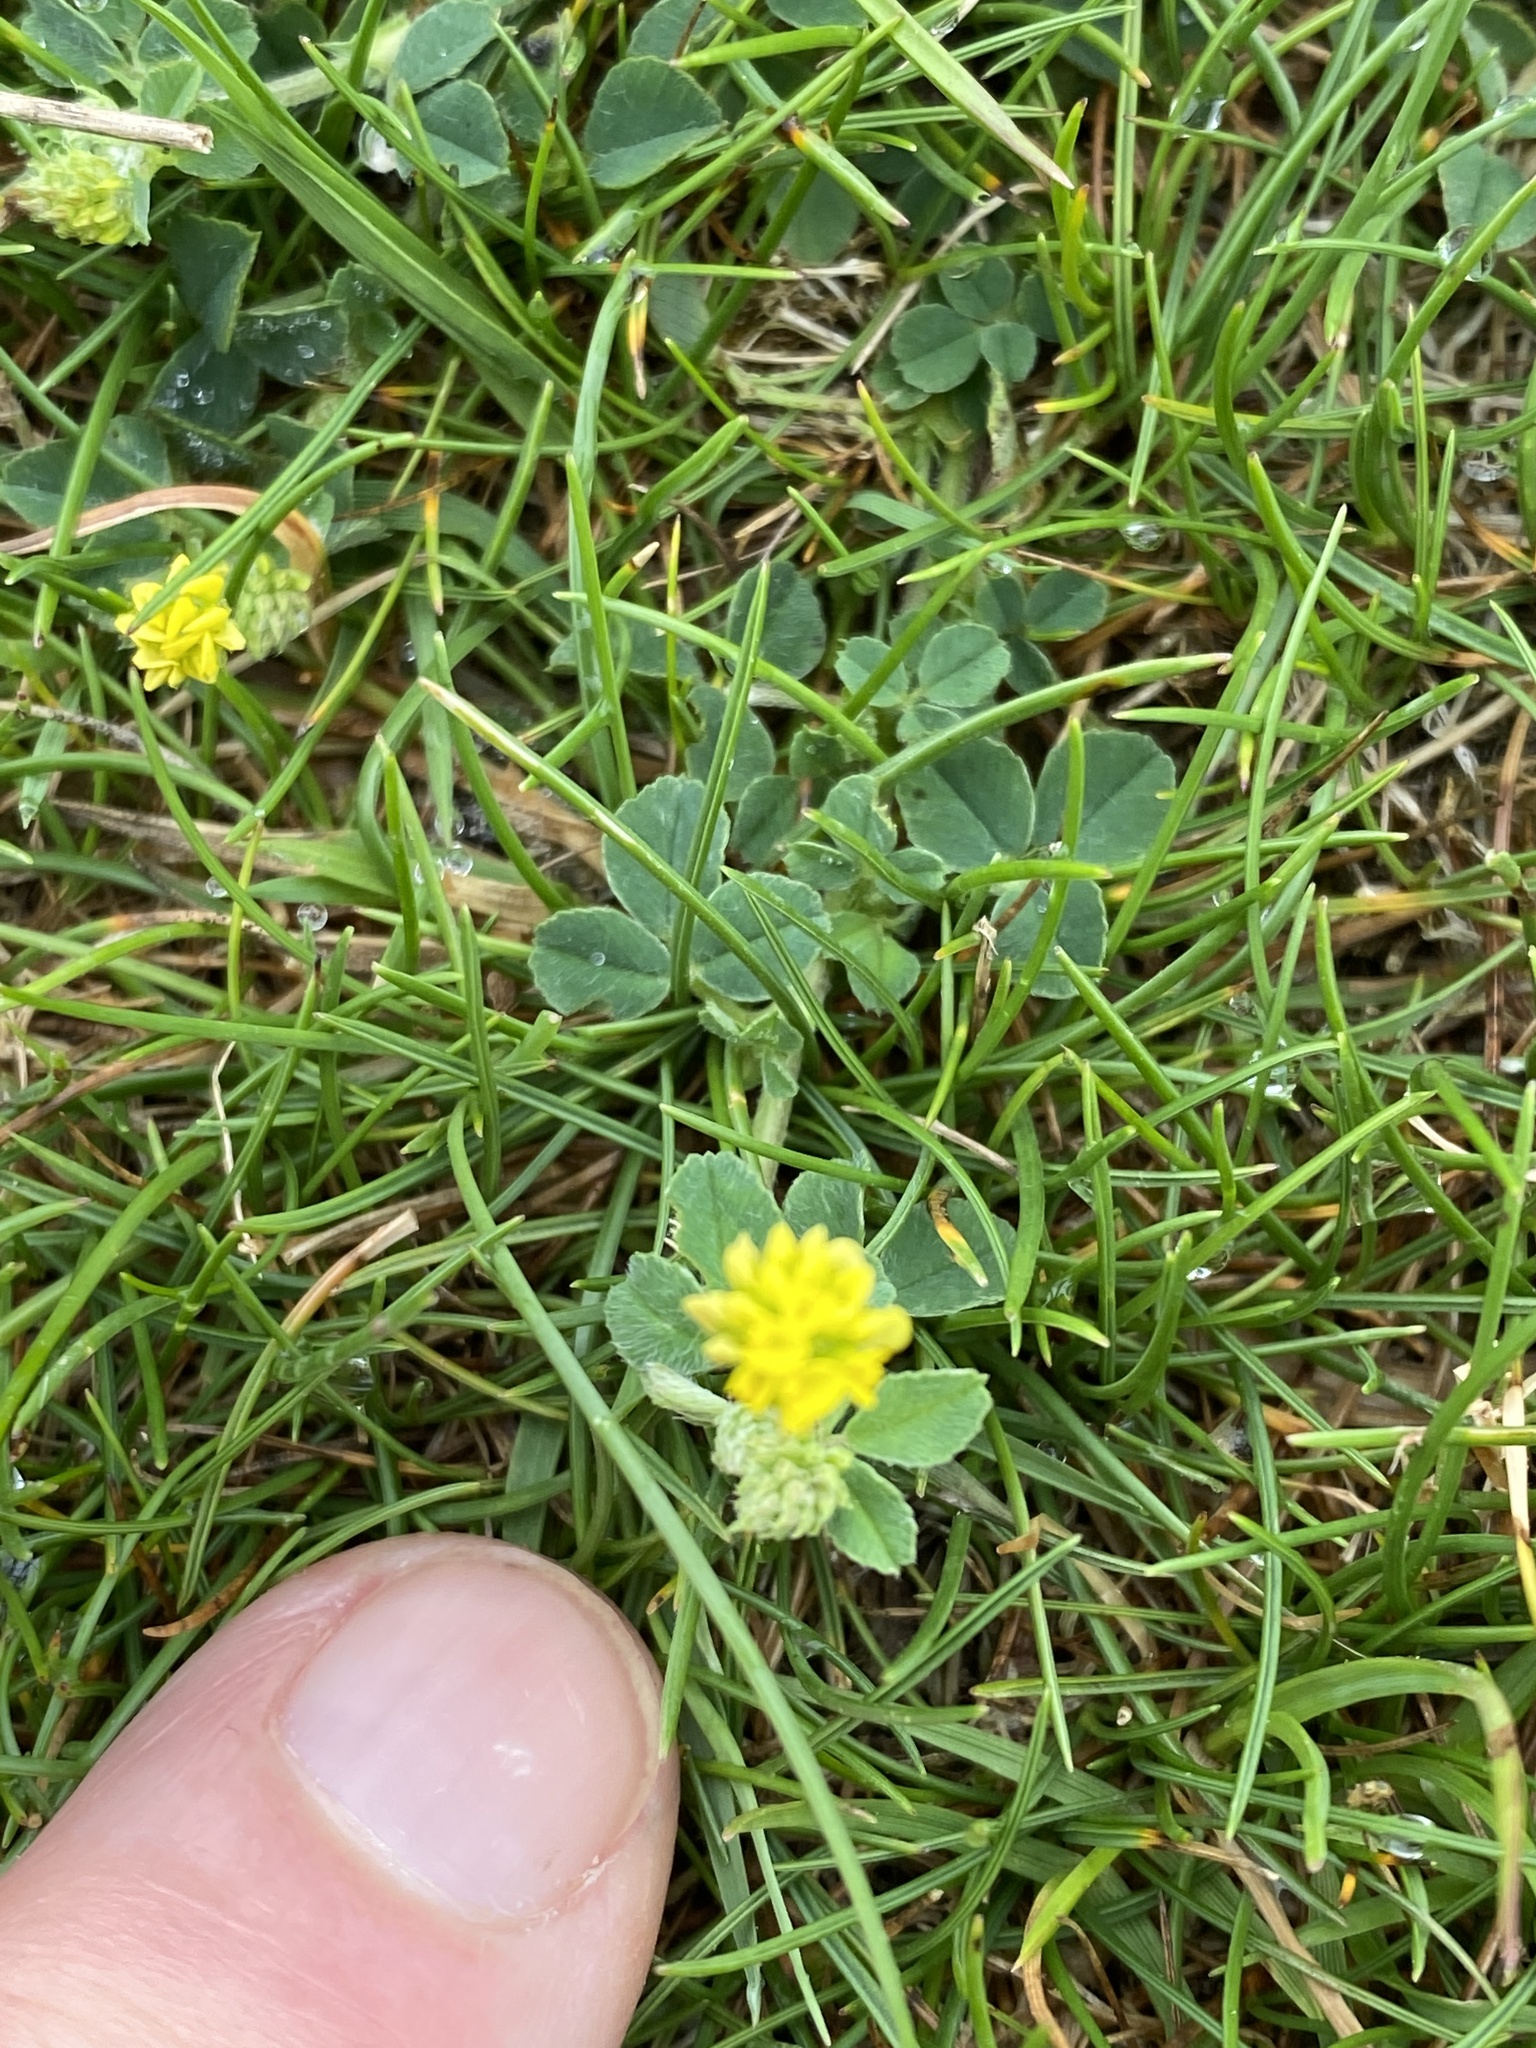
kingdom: Plantae
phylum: Tracheophyta
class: Magnoliopsida
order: Fabales
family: Fabaceae
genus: Medicago
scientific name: Medicago lupulina
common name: Black medick
